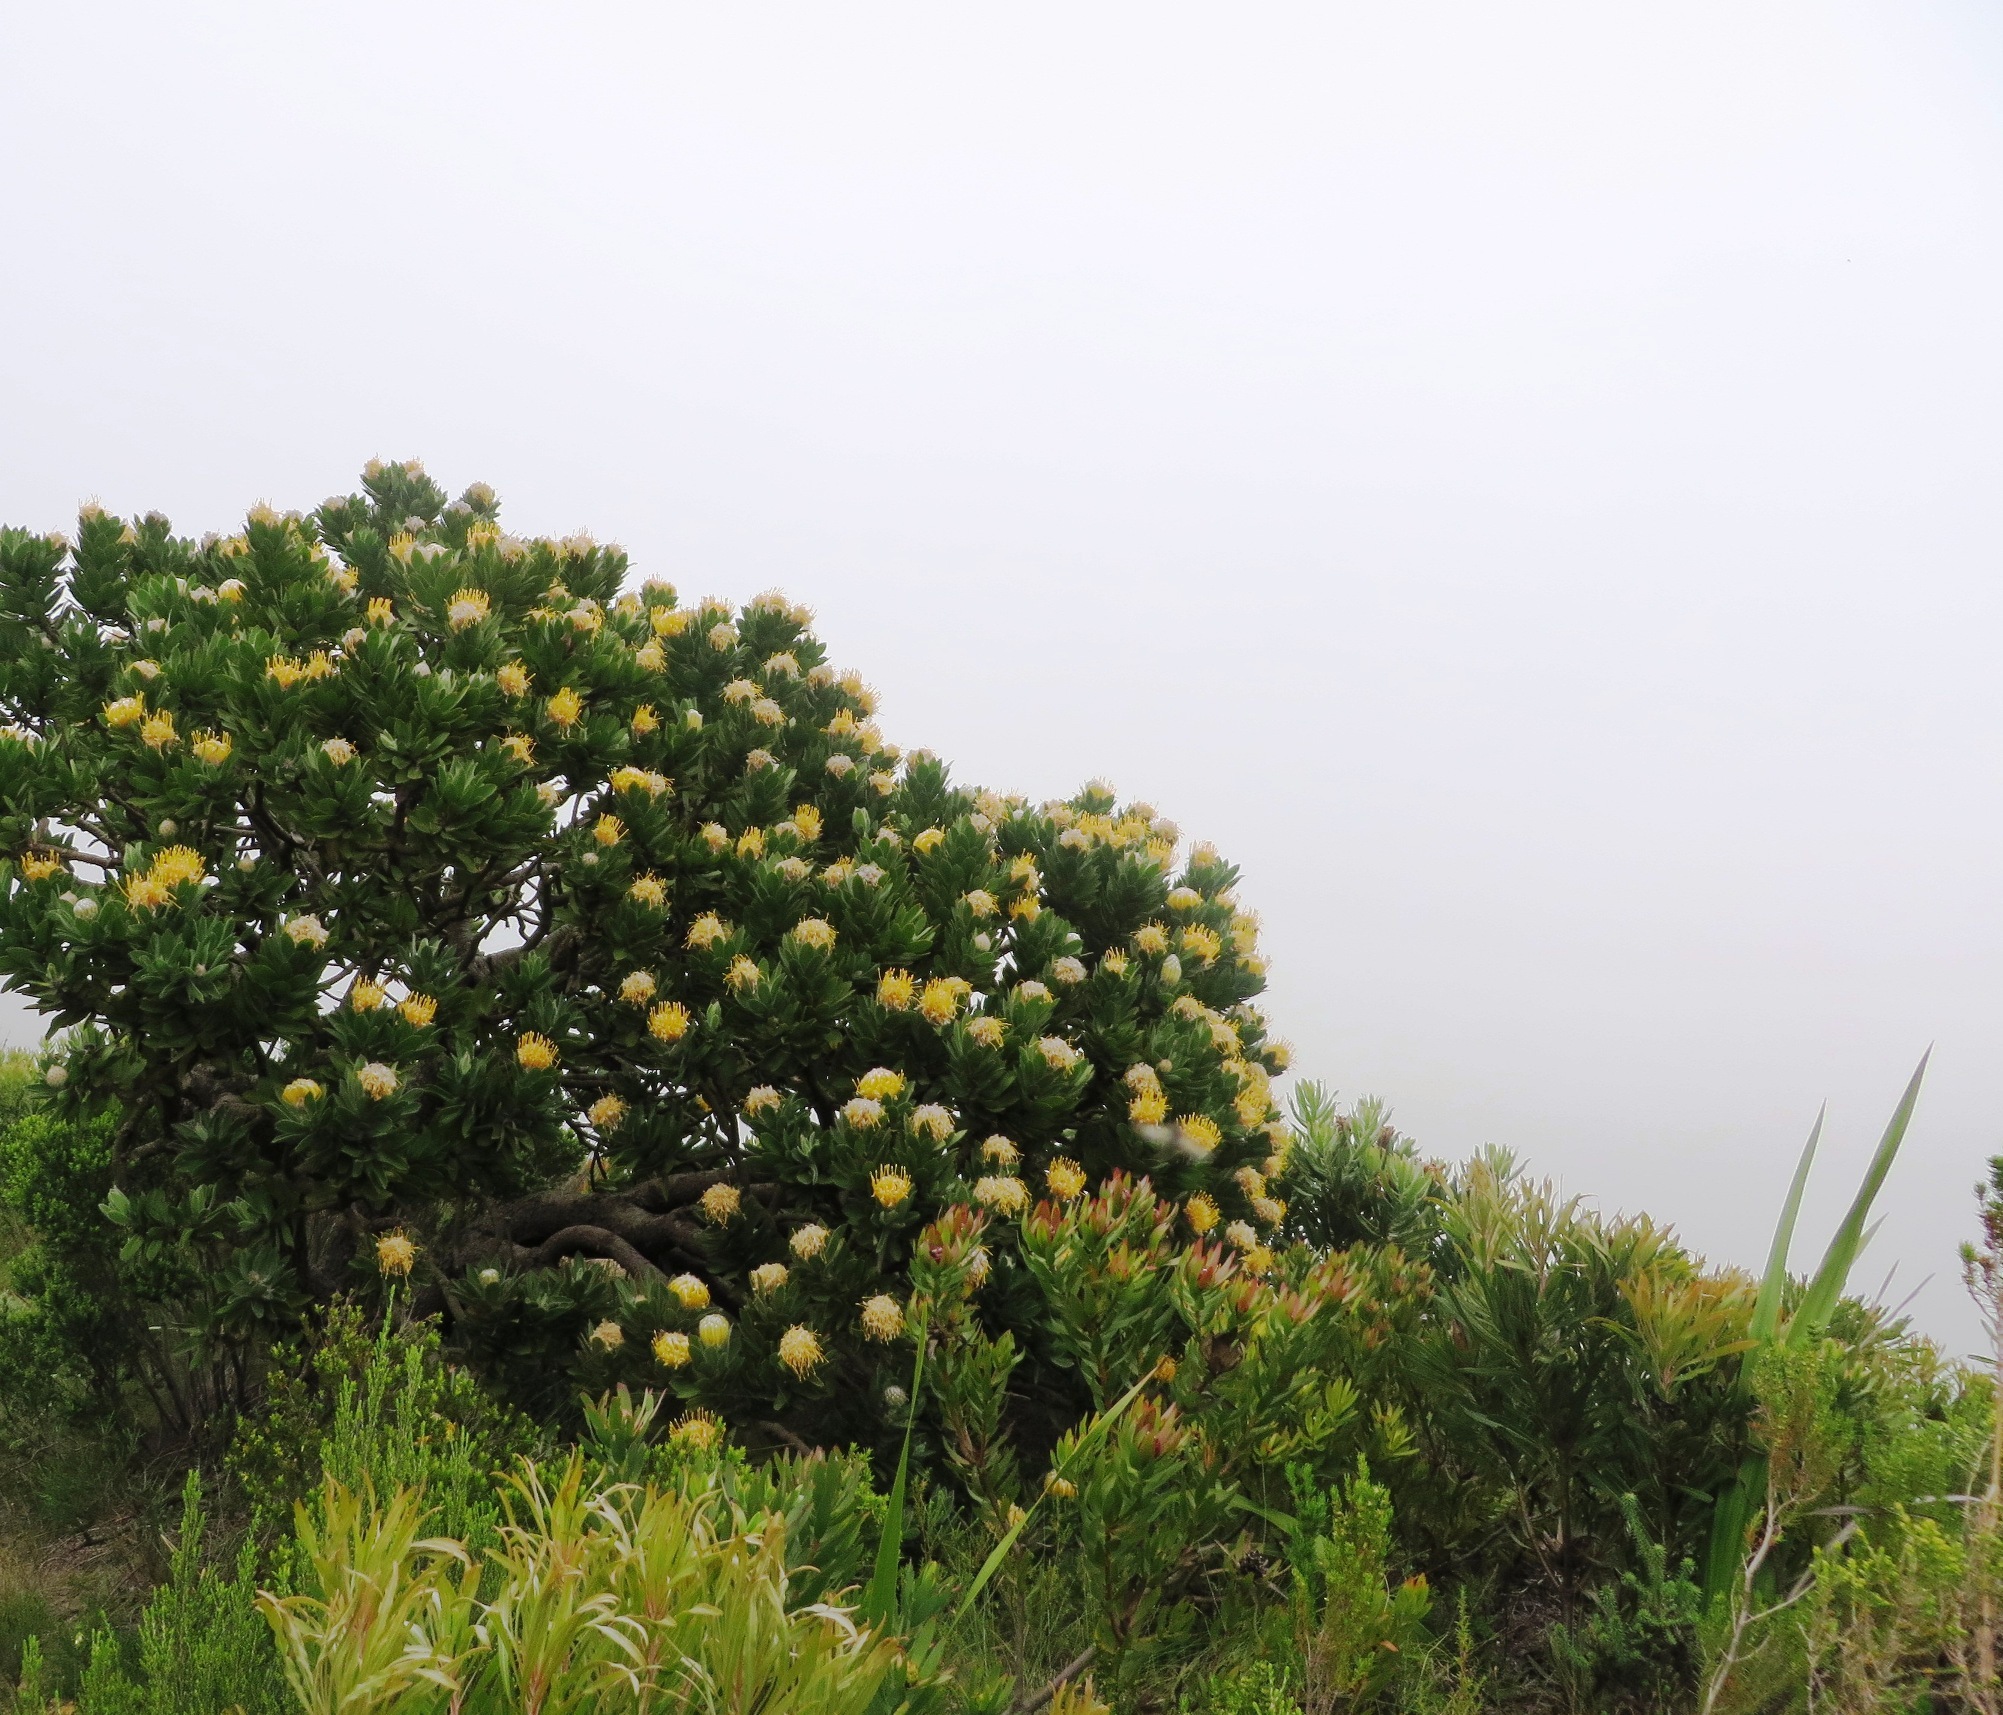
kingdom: Plantae
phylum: Tracheophyta
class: Magnoliopsida
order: Proteales
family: Proteaceae
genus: Leucospermum
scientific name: Leucospermum conocarpodendron
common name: Tree pincushion
